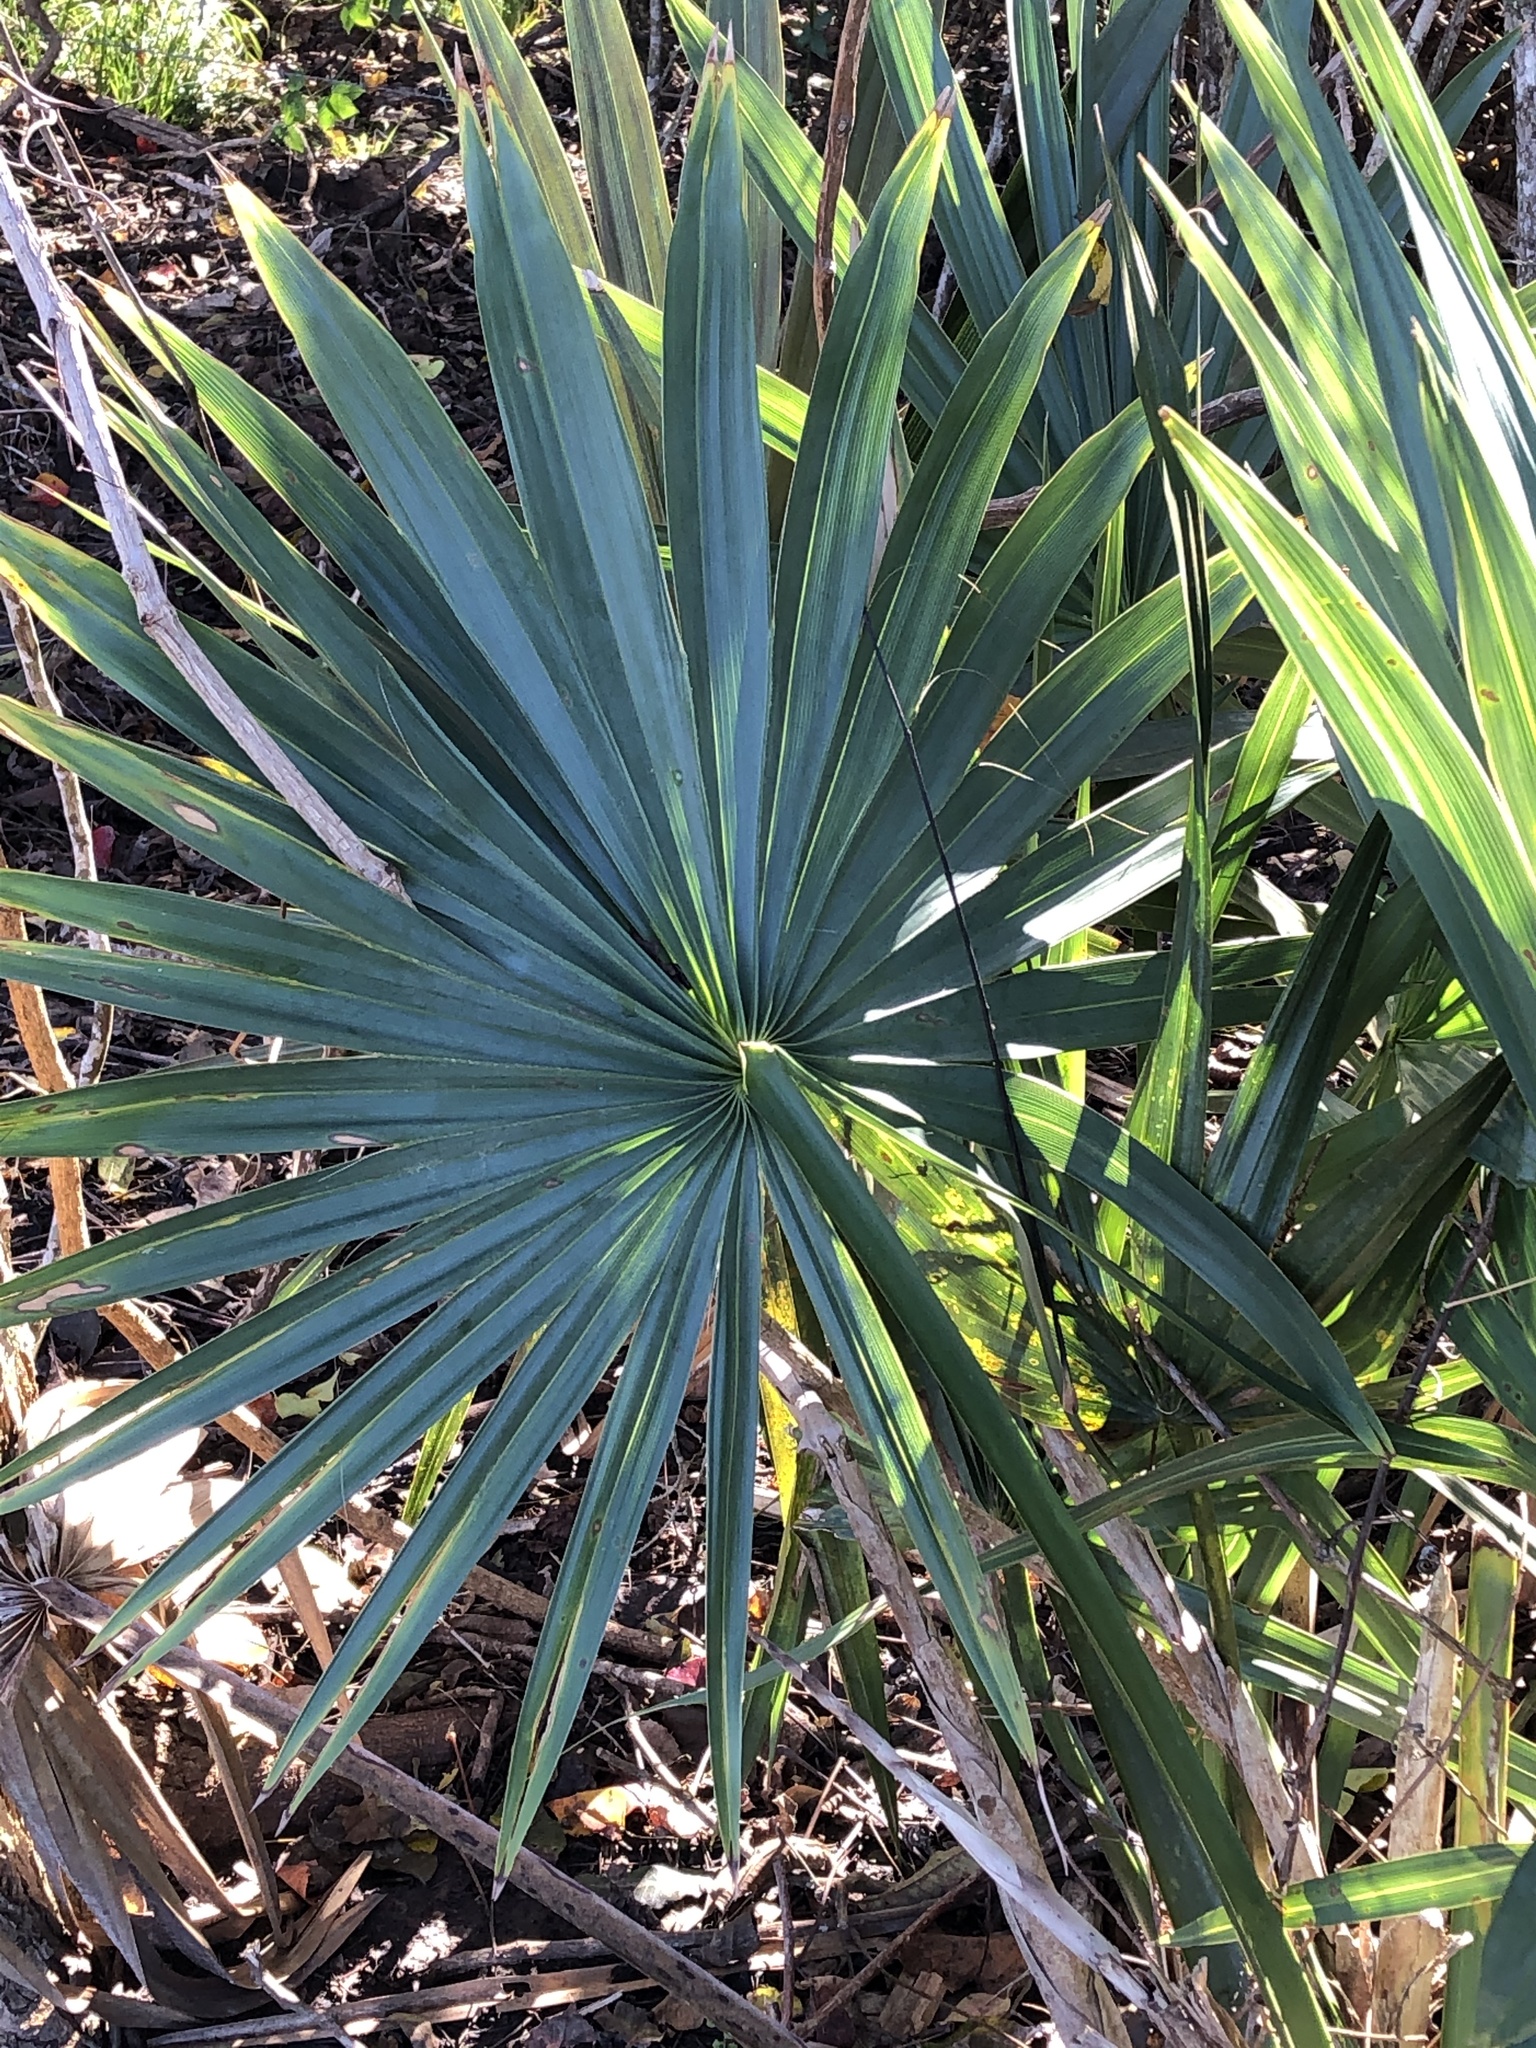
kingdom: Plantae
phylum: Tracheophyta
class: Liliopsida
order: Arecales
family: Arecaceae
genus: Sabal
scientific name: Sabal minor
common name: Dwarf palmetto
